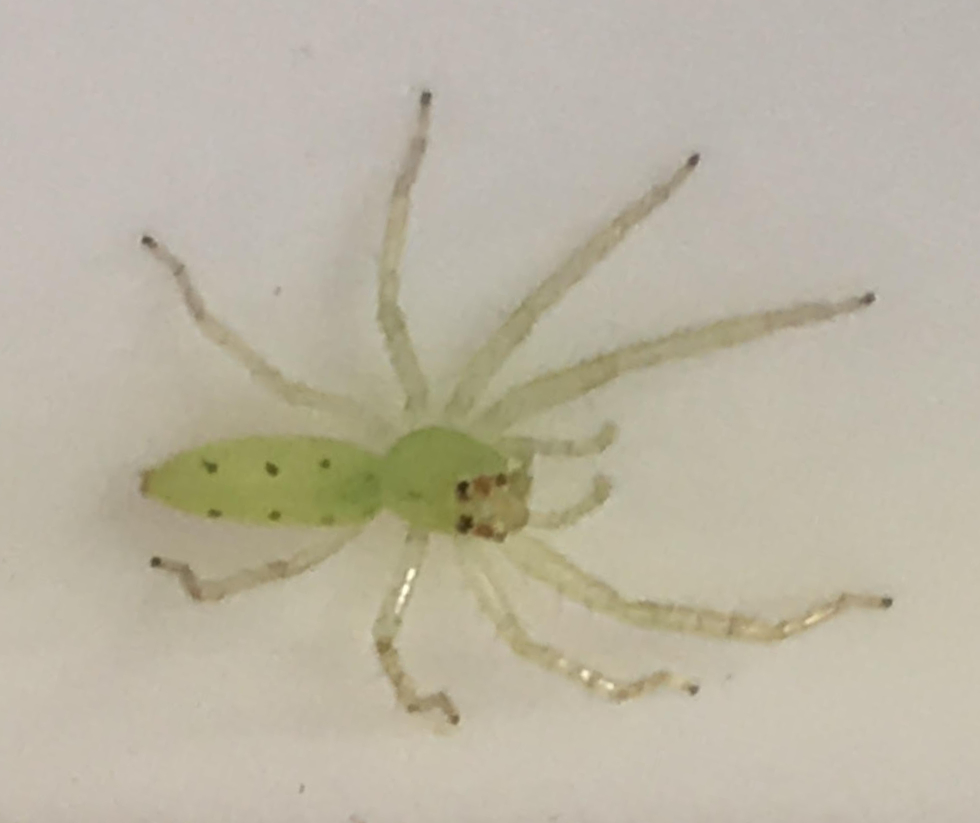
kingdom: Animalia
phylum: Arthropoda
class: Arachnida
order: Araneae
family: Salticidae
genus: Lyssomanes
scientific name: Lyssomanes viridis
